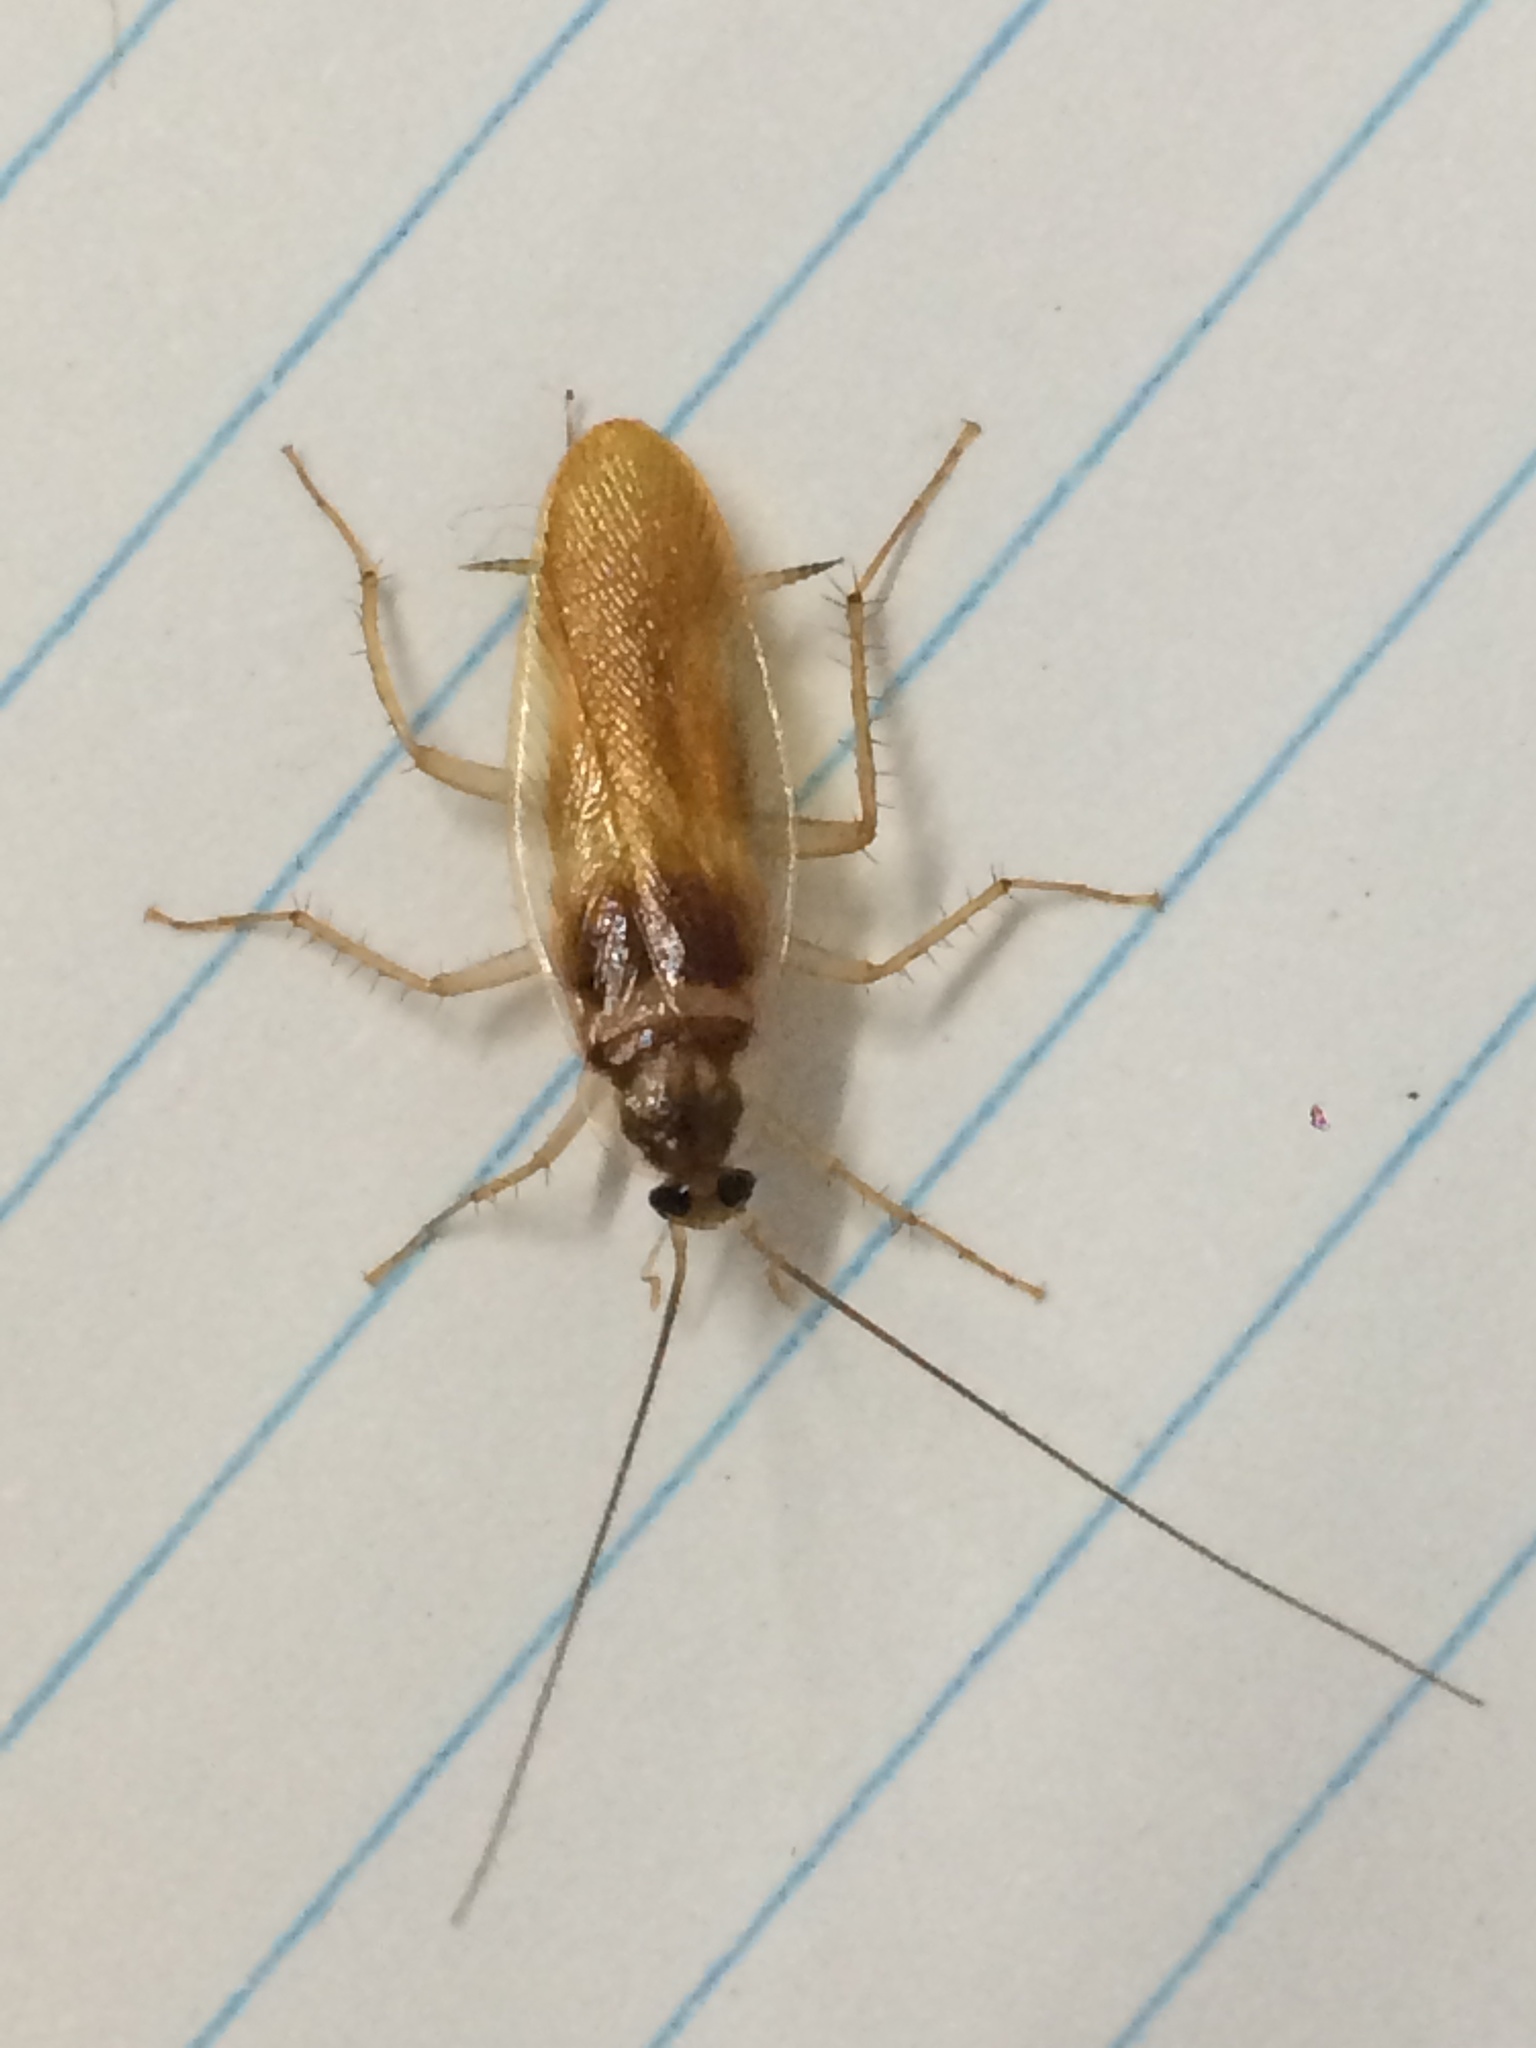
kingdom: Animalia
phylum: Arthropoda
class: Insecta
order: Blattodea
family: Ectobiidae
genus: Supella
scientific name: Supella longipalpa
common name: Brown-banded cockroach
